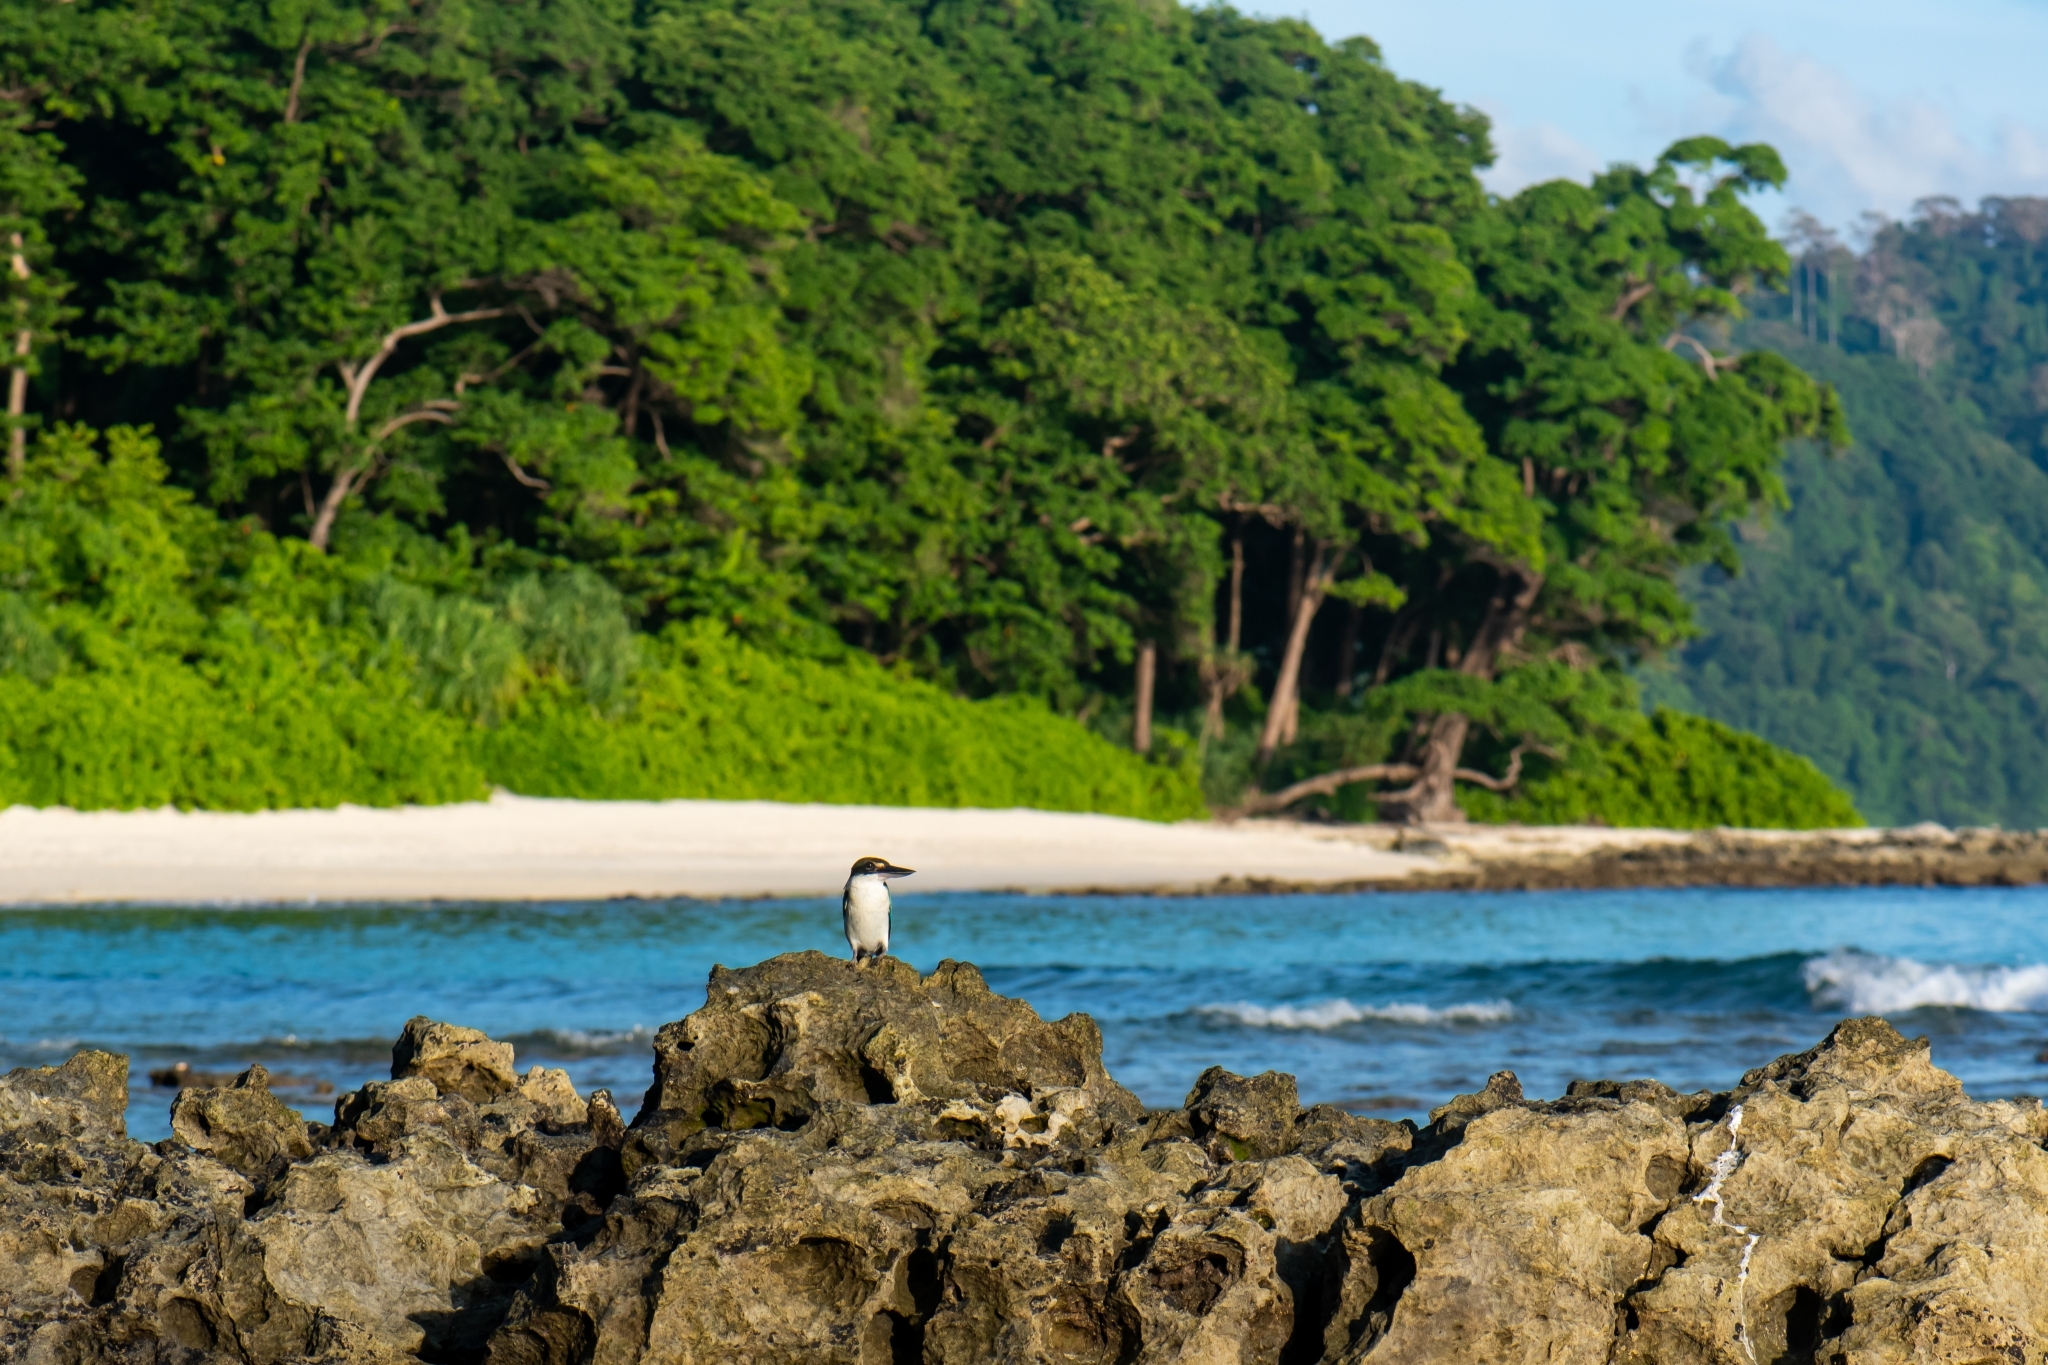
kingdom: Animalia
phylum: Chordata
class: Aves
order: Coraciiformes
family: Alcedinidae
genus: Todiramphus
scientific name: Todiramphus chloris
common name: Collared kingfisher
